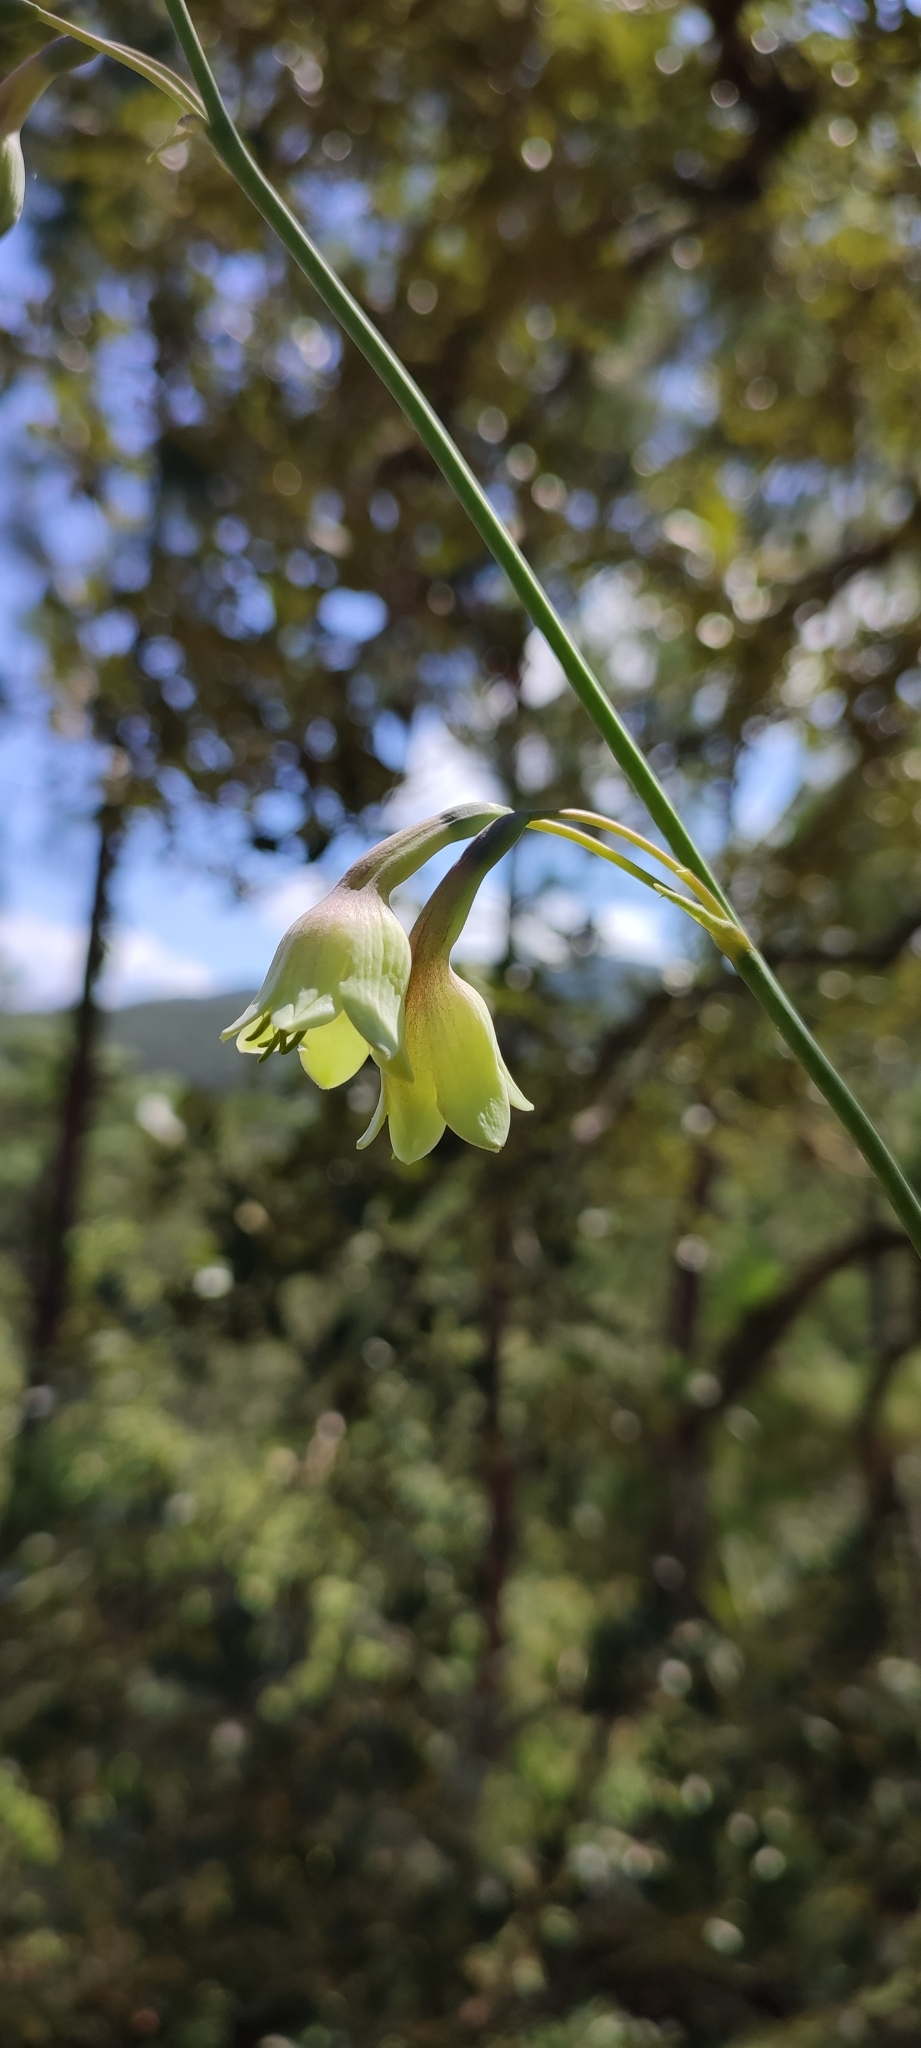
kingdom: Plantae
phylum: Tracheophyta
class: Liliopsida
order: Asparagales
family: Asparagaceae
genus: Agave
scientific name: Agave bulliana
